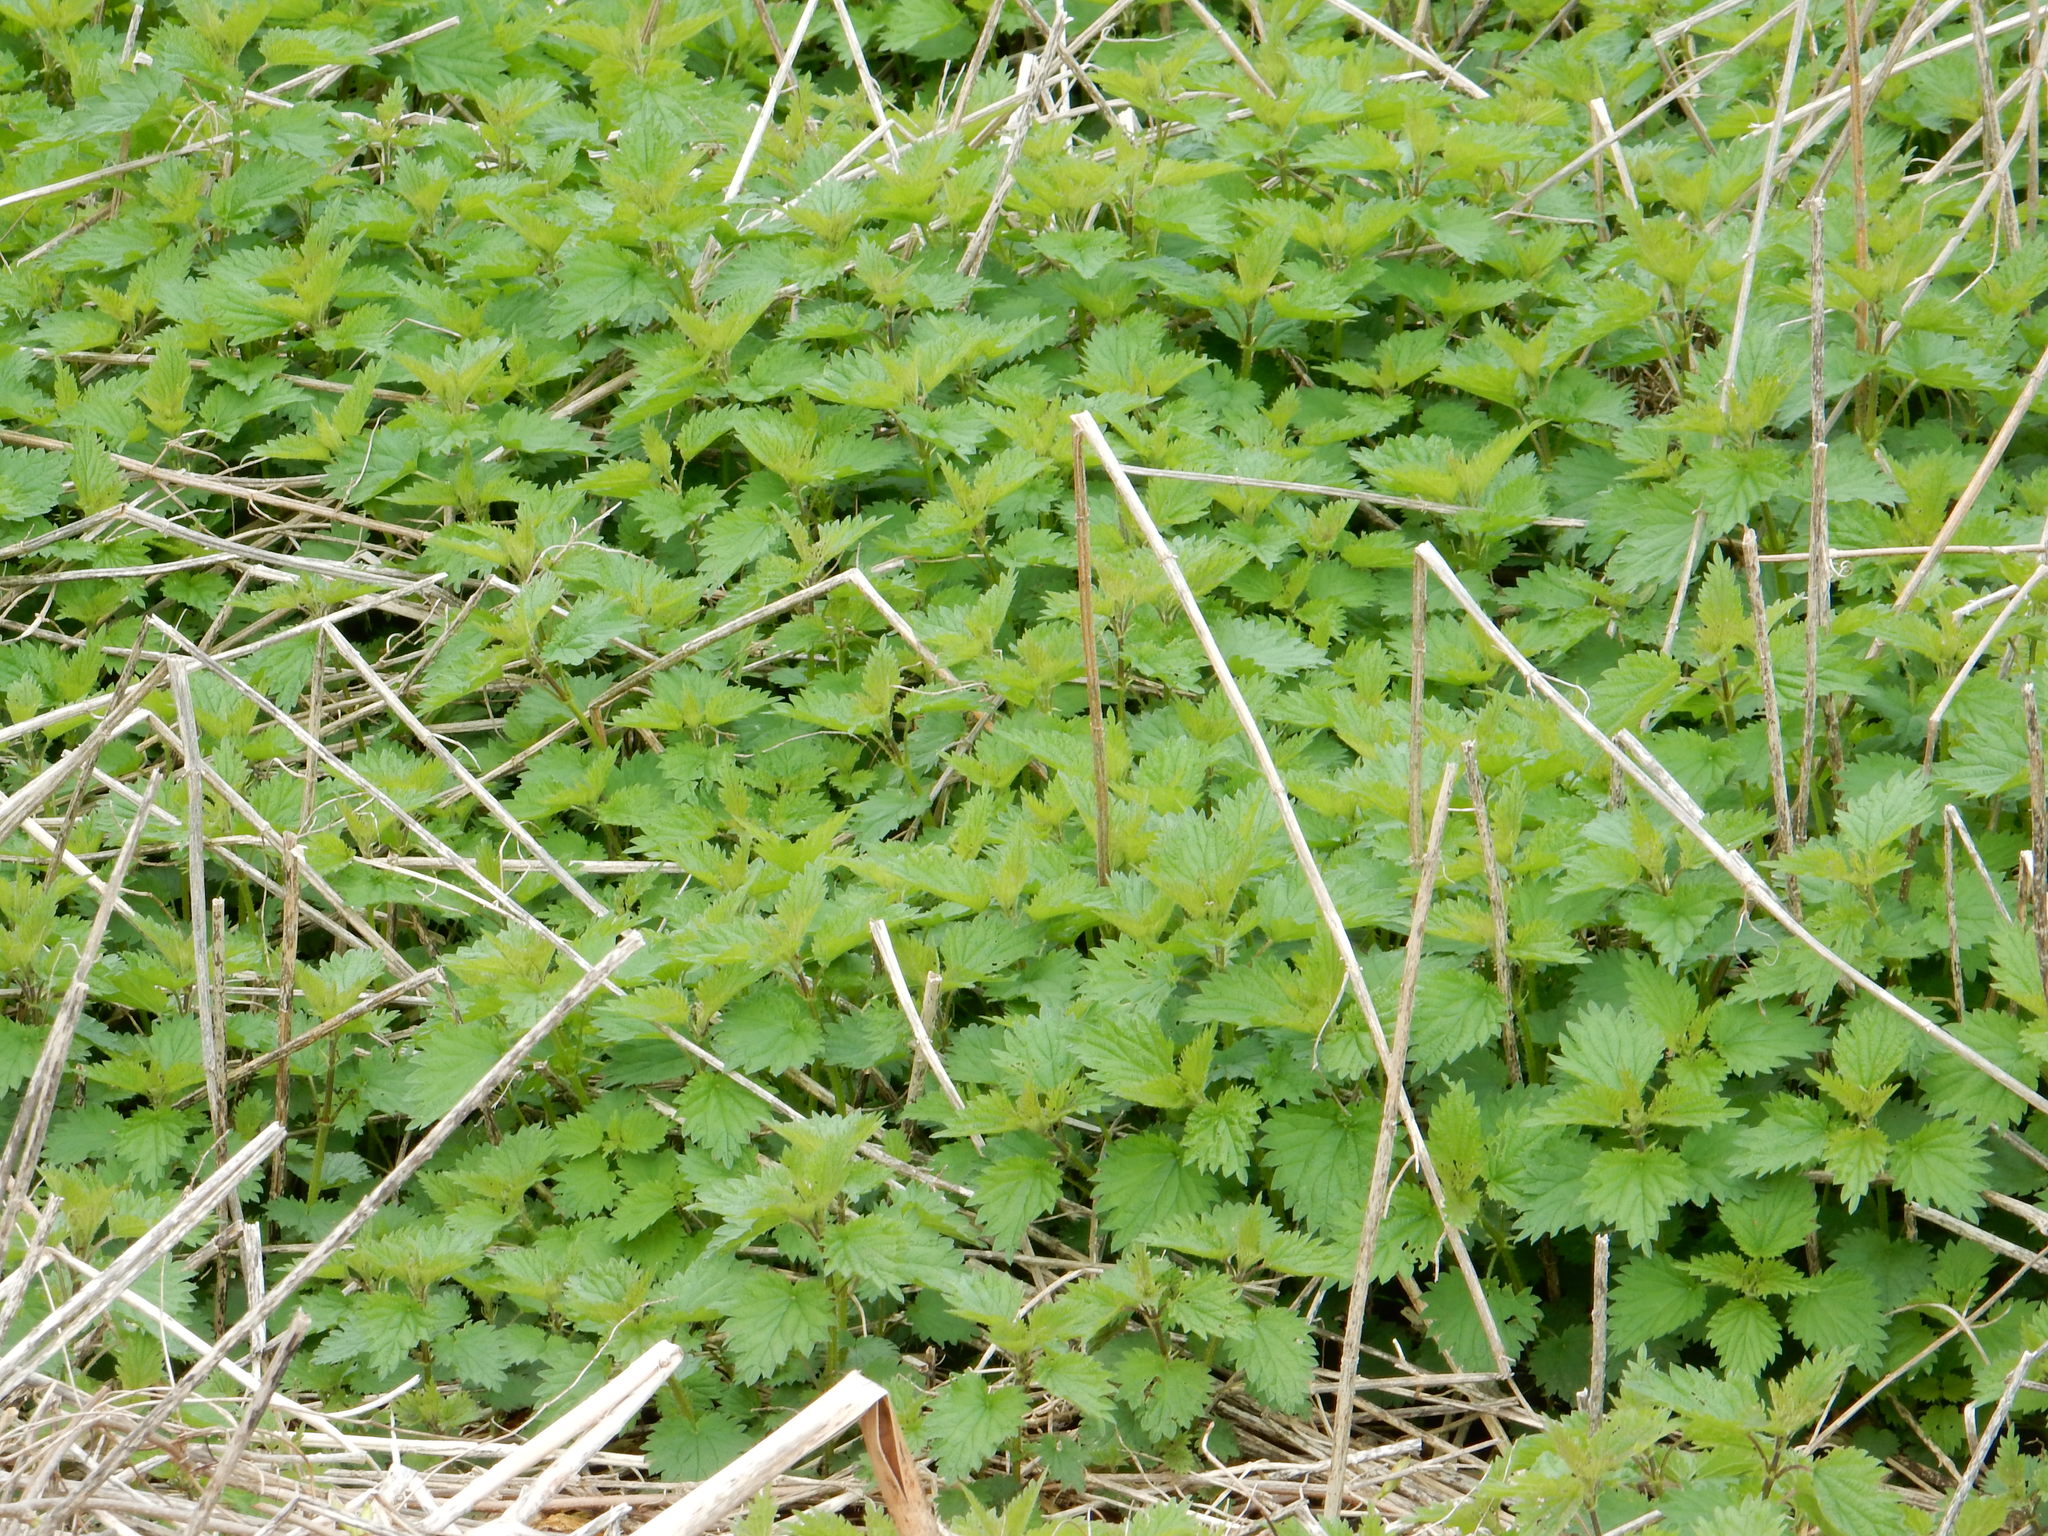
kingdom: Plantae
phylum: Tracheophyta
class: Magnoliopsida
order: Rosales
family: Urticaceae
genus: Urtica
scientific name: Urtica dioica
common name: Common nettle
